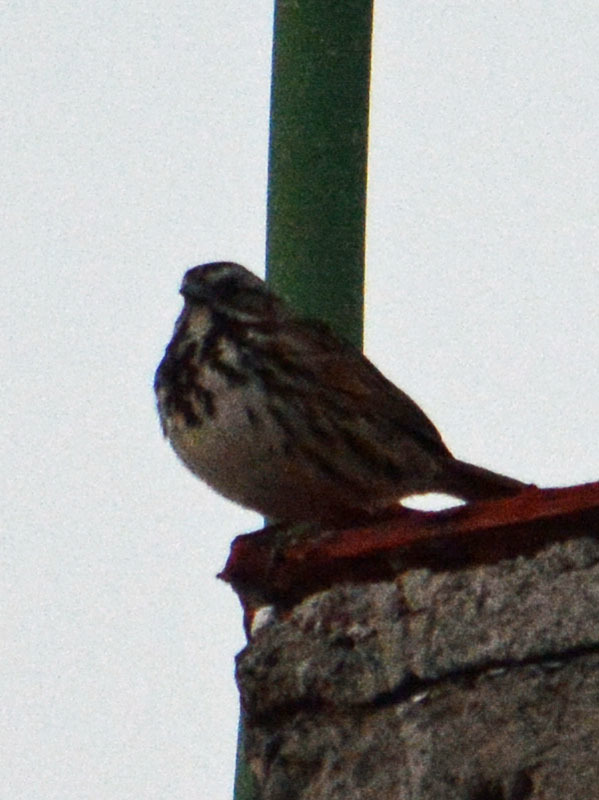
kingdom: Animalia
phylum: Chordata
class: Aves
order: Passeriformes
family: Passerellidae
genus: Melospiza
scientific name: Melospiza melodia
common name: Song sparrow
